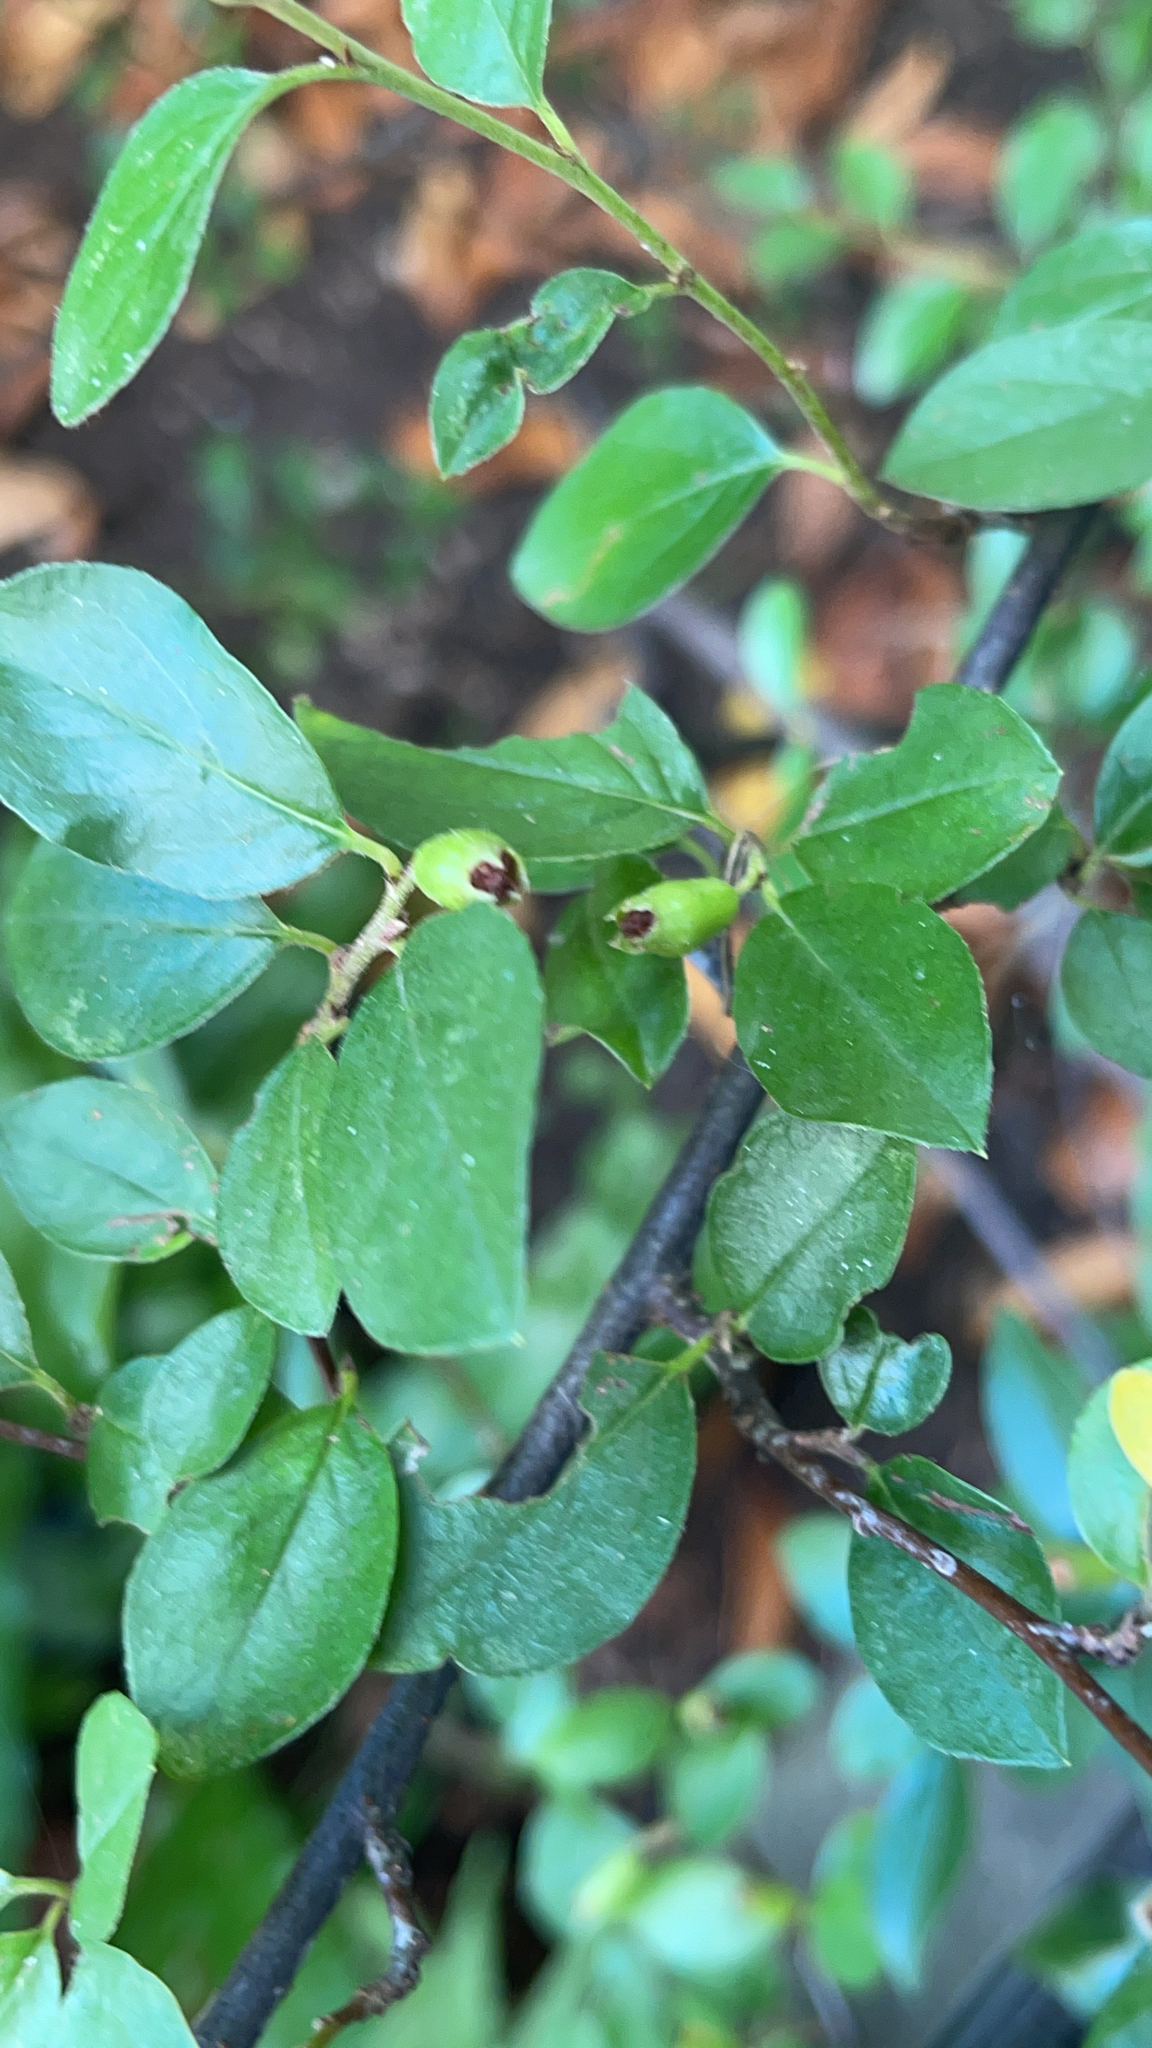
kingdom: Plantae
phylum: Tracheophyta
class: Magnoliopsida
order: Rosales
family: Rosaceae
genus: Cotoneaster
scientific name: Cotoneaster divaricatus
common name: Spreading cotoneaster
